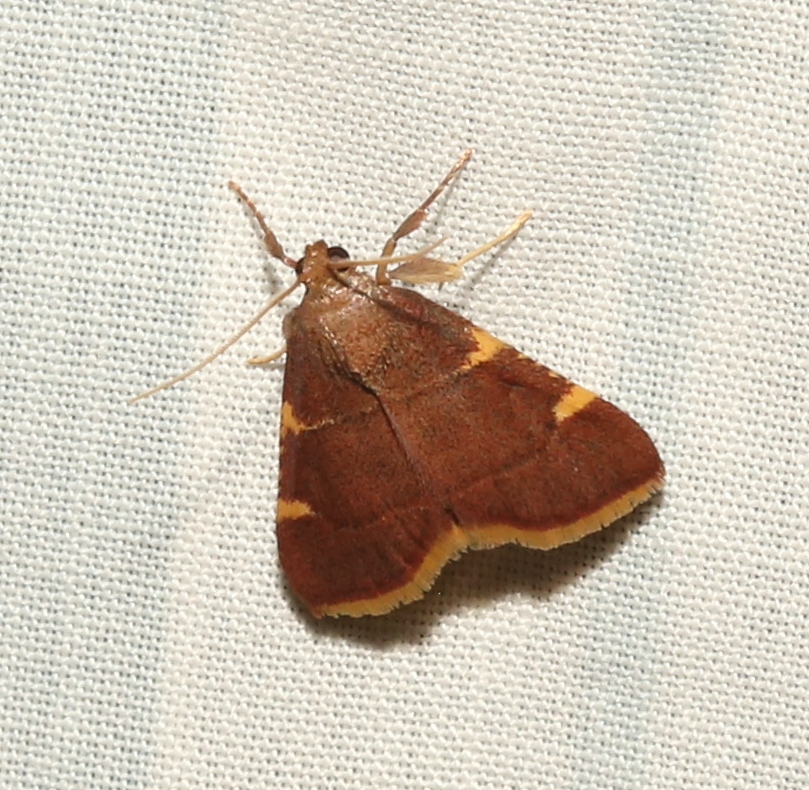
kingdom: Animalia
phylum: Arthropoda
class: Insecta
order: Lepidoptera
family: Pyralidae
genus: Hypsopygia
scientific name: Hypsopygia olinalis
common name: Yellow-fringed dolichomia moth
